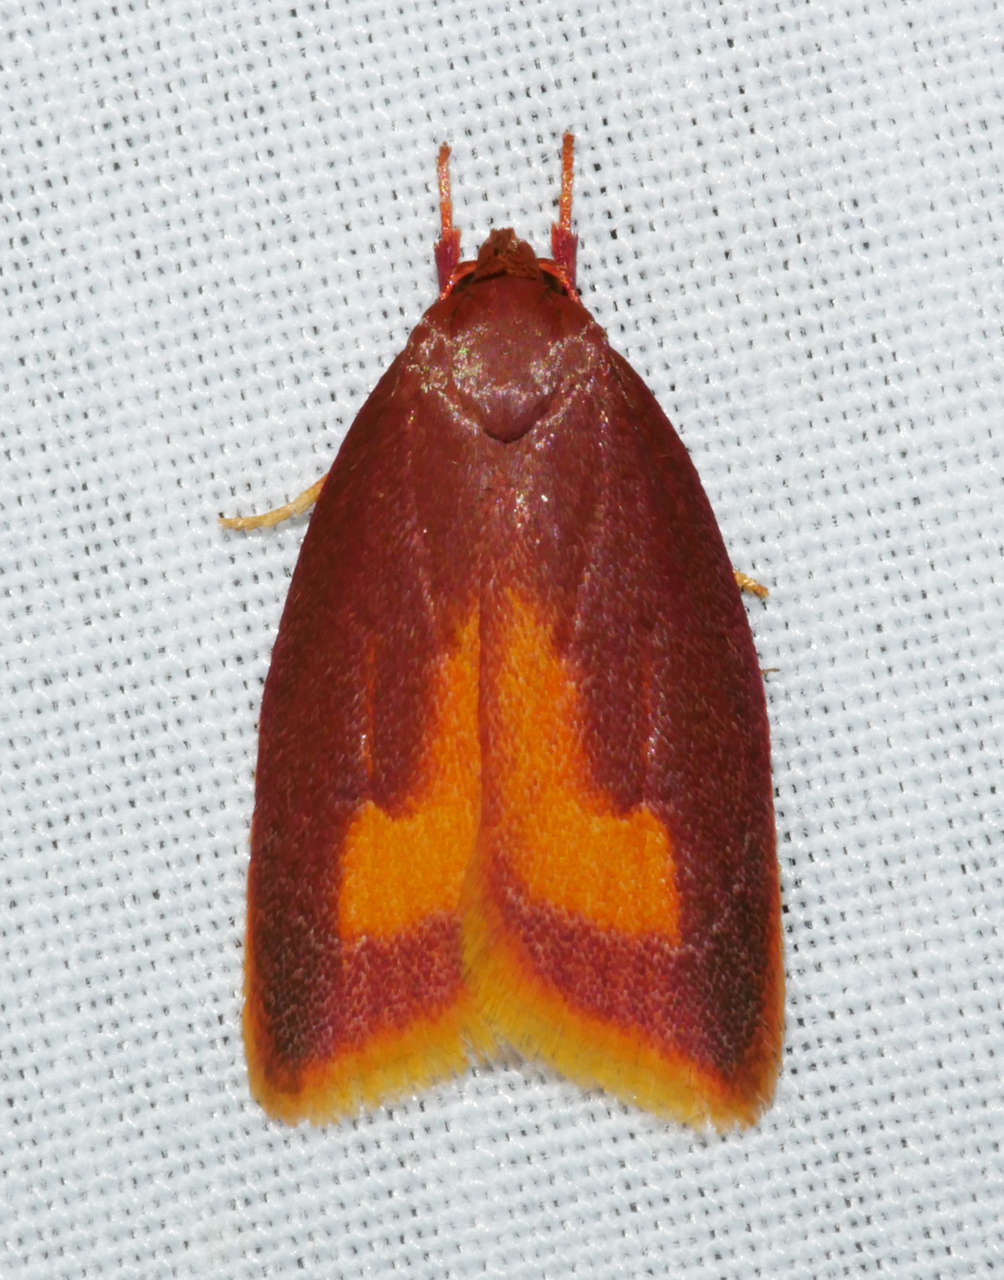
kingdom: Animalia
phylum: Arthropoda
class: Insecta
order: Lepidoptera
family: Oecophoridae
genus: Epicurica
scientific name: Epicurica laetiferanus
